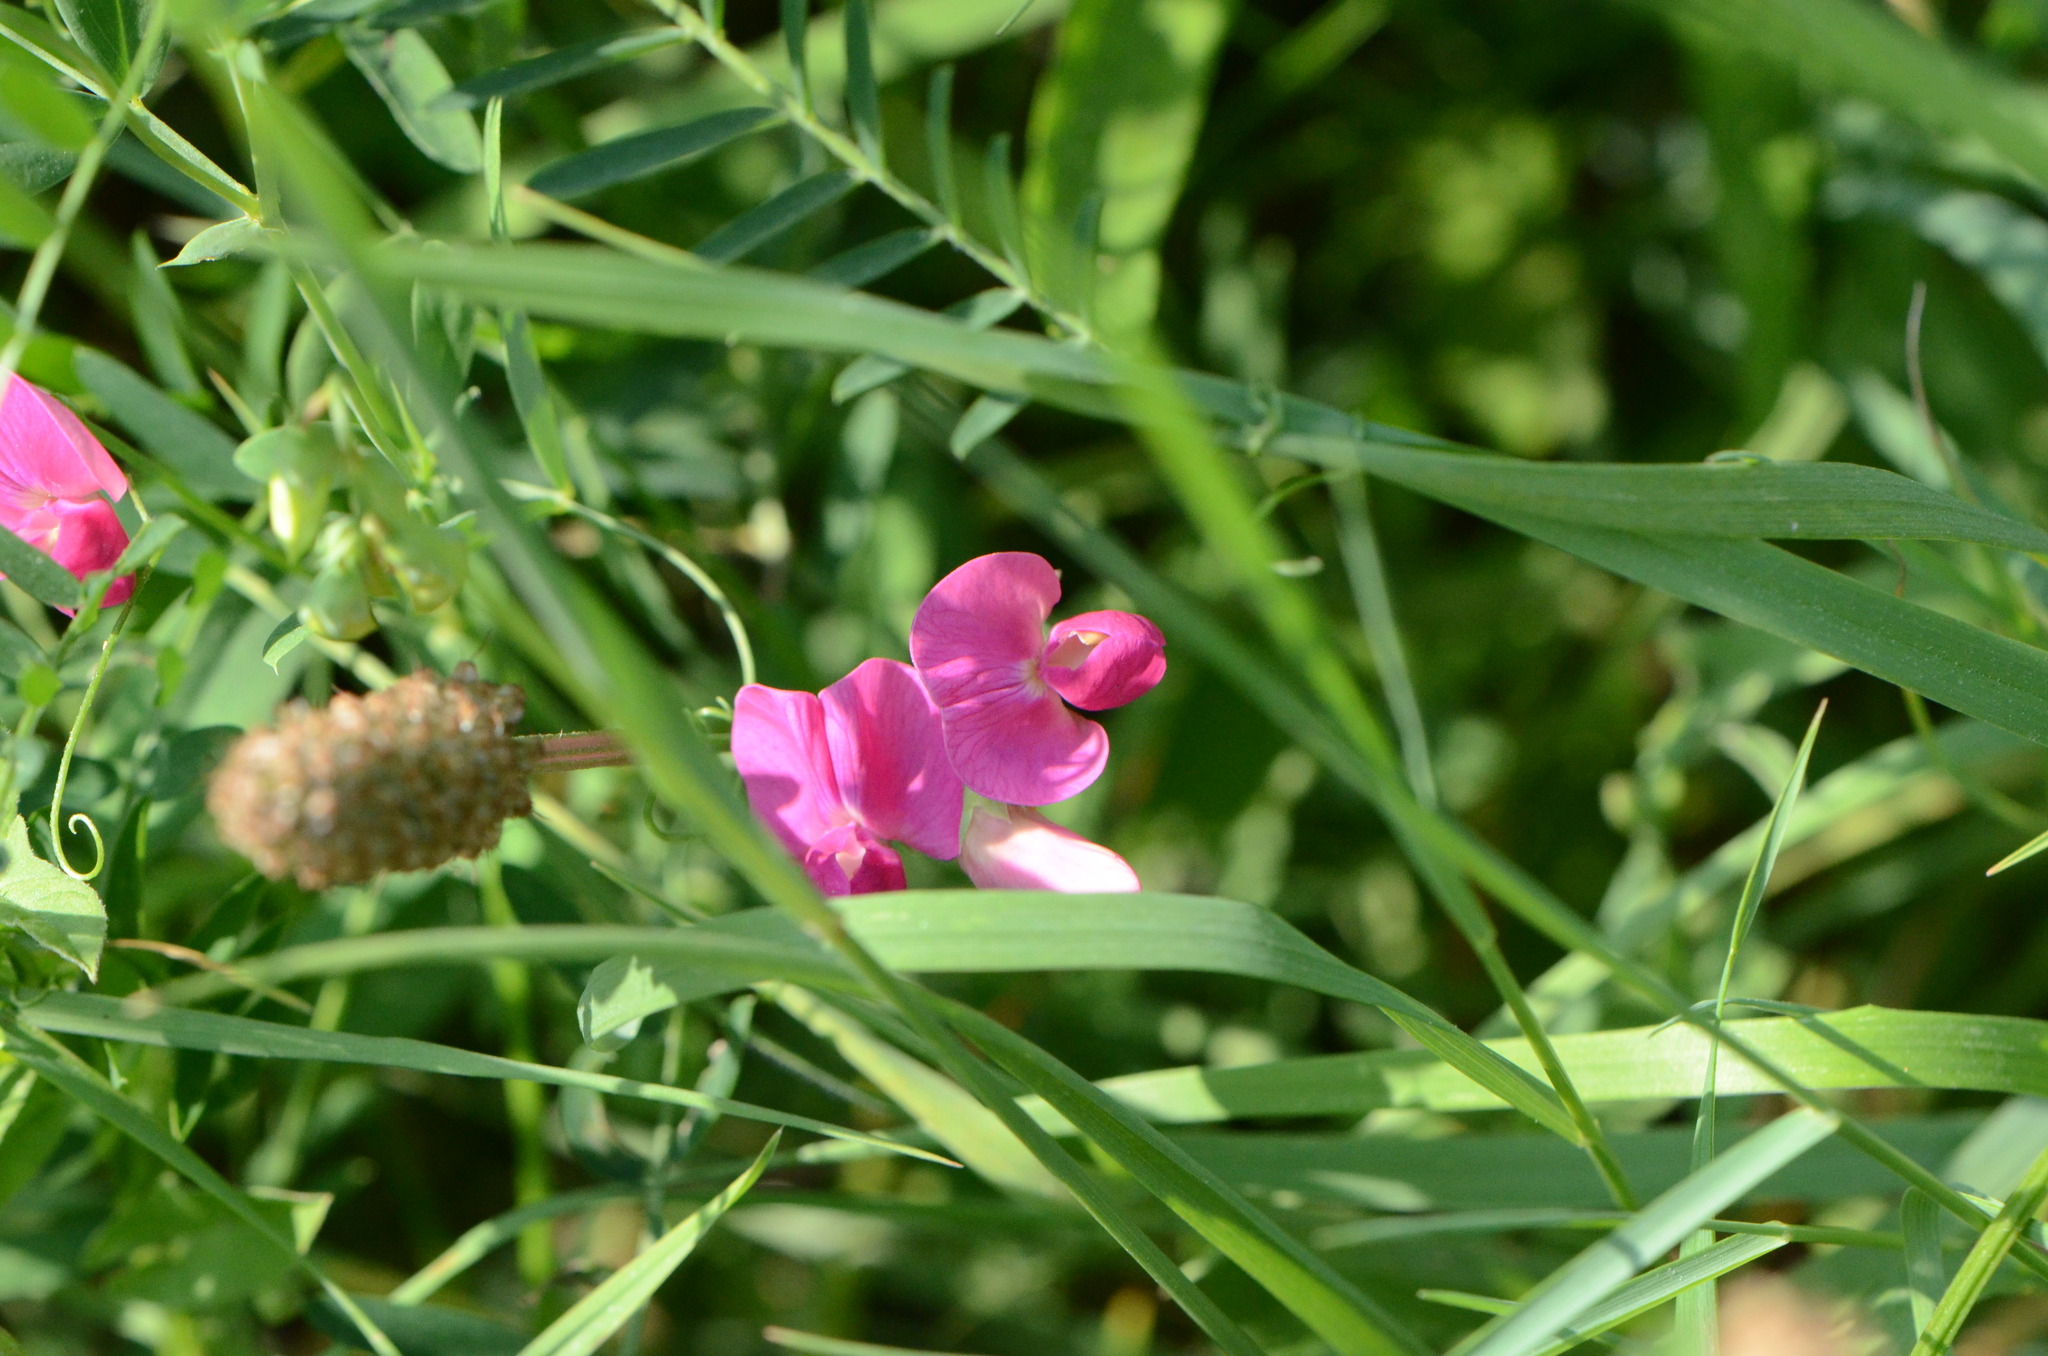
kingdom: Plantae
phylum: Tracheophyta
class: Magnoliopsida
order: Fabales
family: Fabaceae
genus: Lathyrus
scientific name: Lathyrus tuberosus
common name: Tuberous pea
